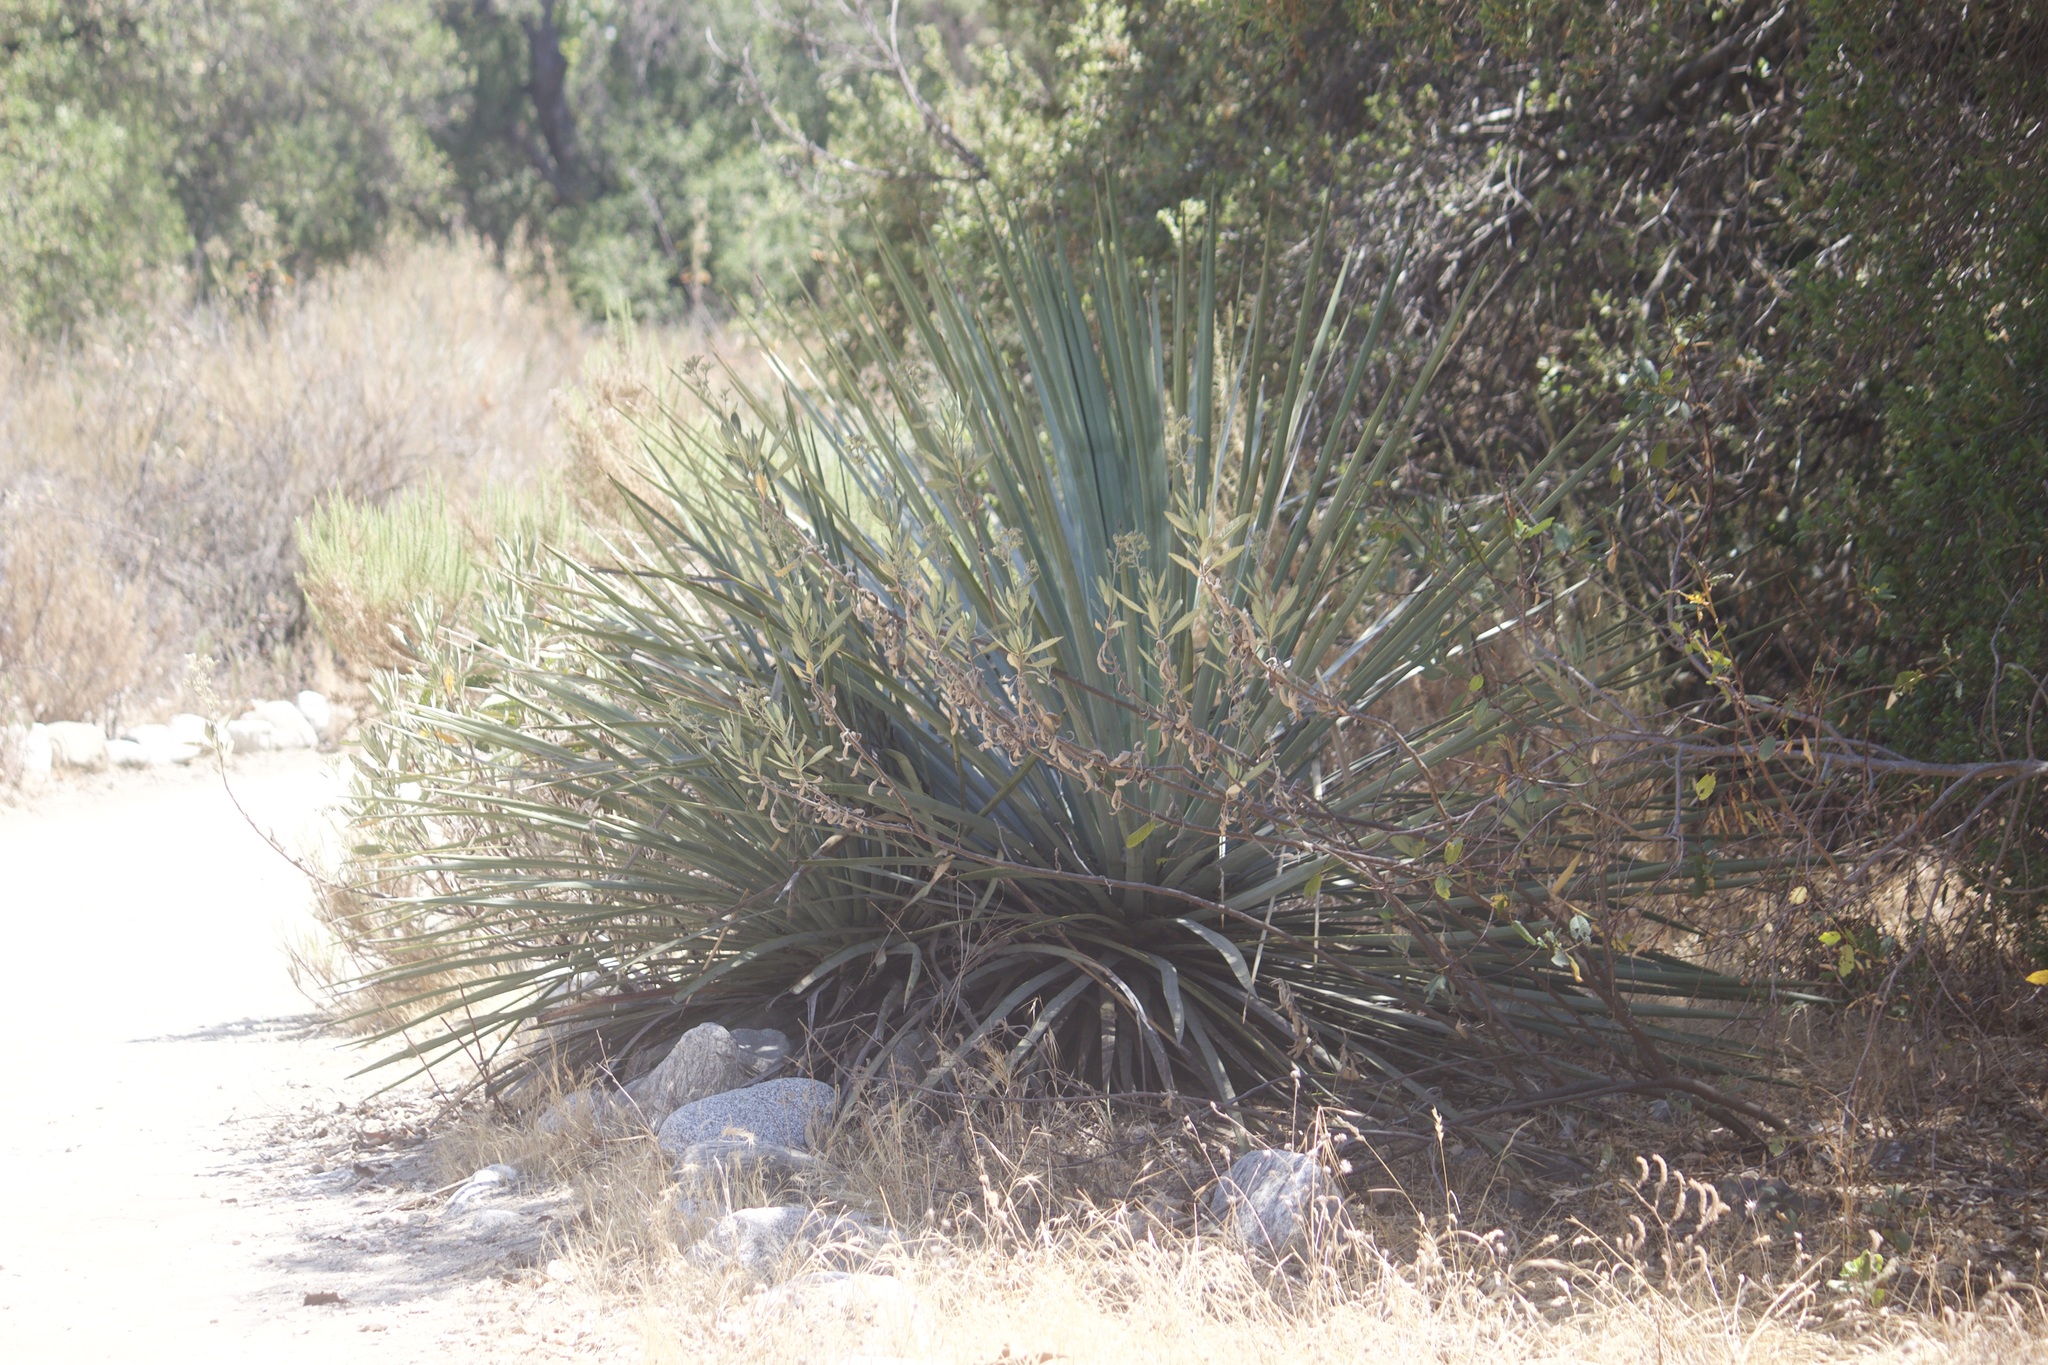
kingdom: Plantae
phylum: Tracheophyta
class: Liliopsida
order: Asparagales
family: Asparagaceae
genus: Hesperoyucca
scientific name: Hesperoyucca whipplei
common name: Our lord's-candle
